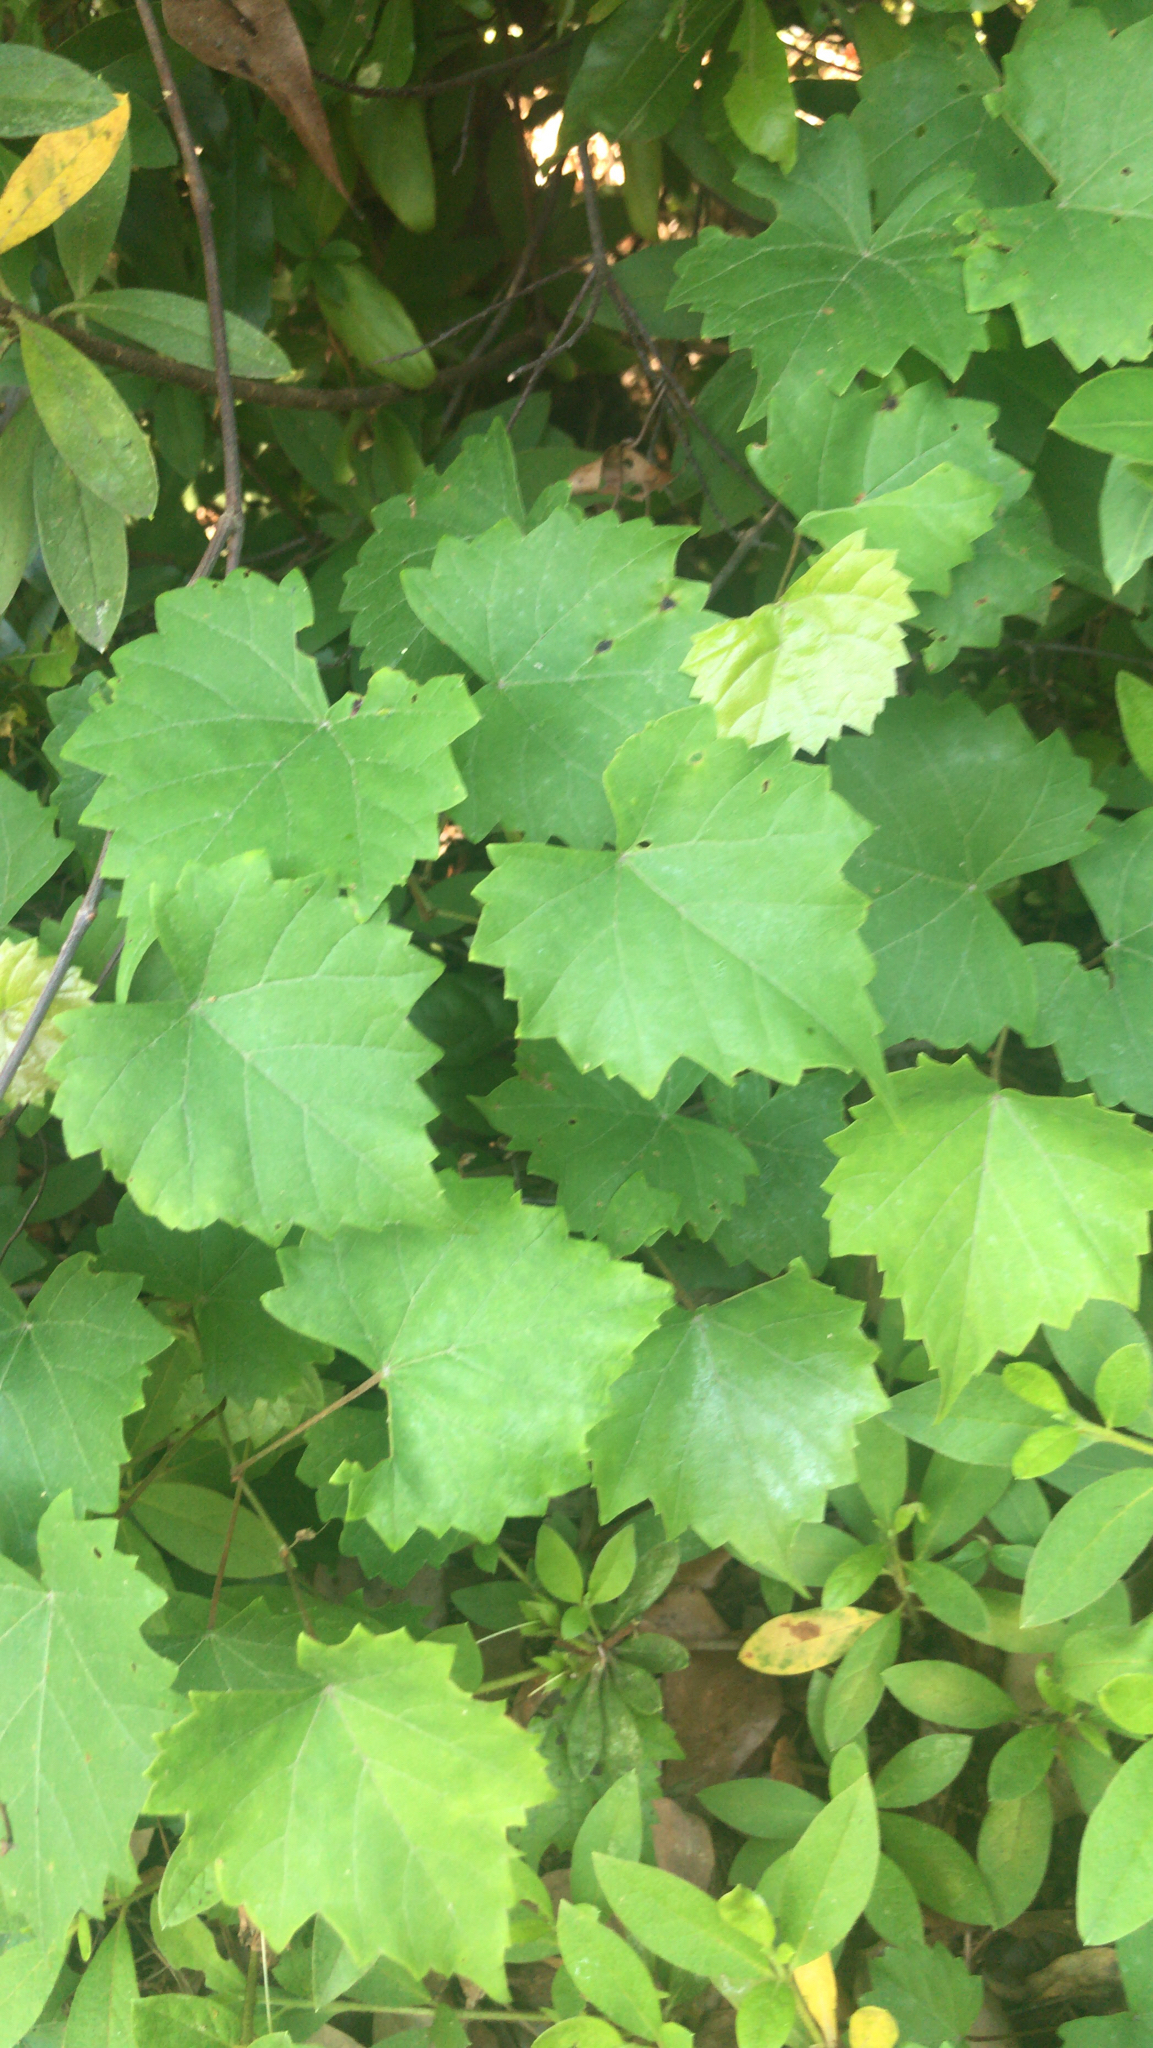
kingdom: Plantae
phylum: Tracheophyta
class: Magnoliopsida
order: Vitales
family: Vitaceae
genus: Vitis
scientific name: Vitis rotundifolia
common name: Muscadine grape
